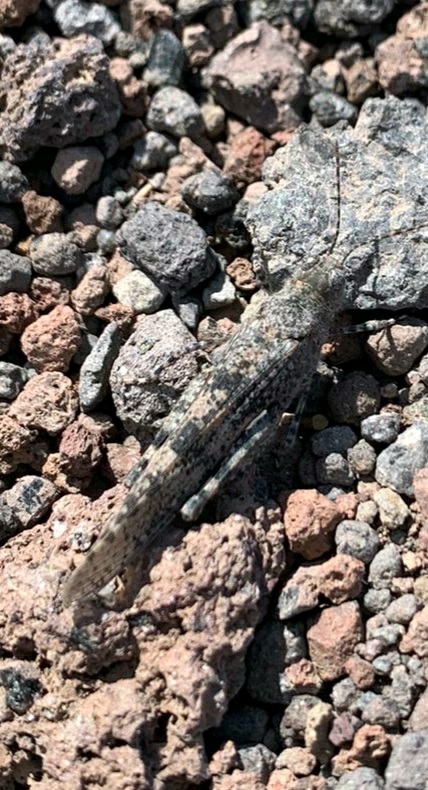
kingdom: Animalia
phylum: Arthropoda
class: Insecta
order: Orthoptera
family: Acrididae
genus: Sphingonotus
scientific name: Sphingonotus caerulans
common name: Blue-winged locust
